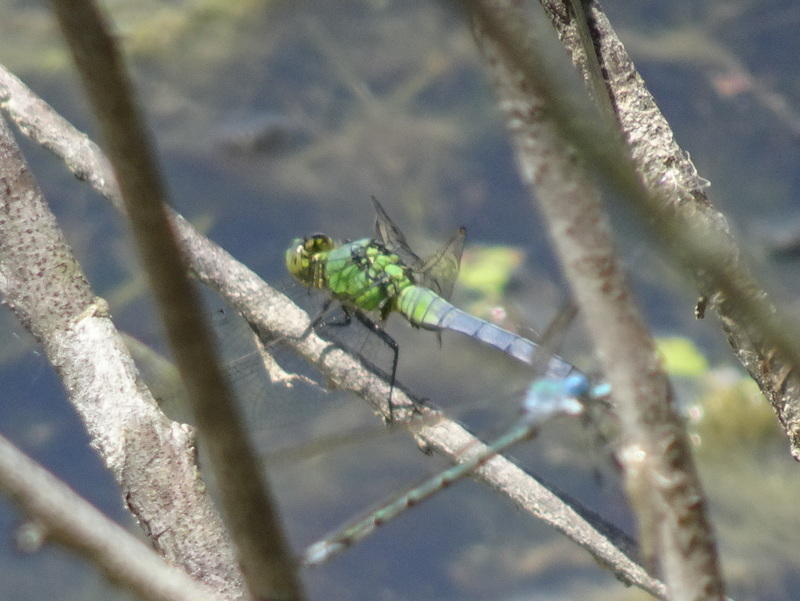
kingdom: Animalia
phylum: Arthropoda
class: Insecta
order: Odonata
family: Libellulidae
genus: Erythemis
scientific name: Erythemis simplicicollis
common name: Eastern pondhawk
